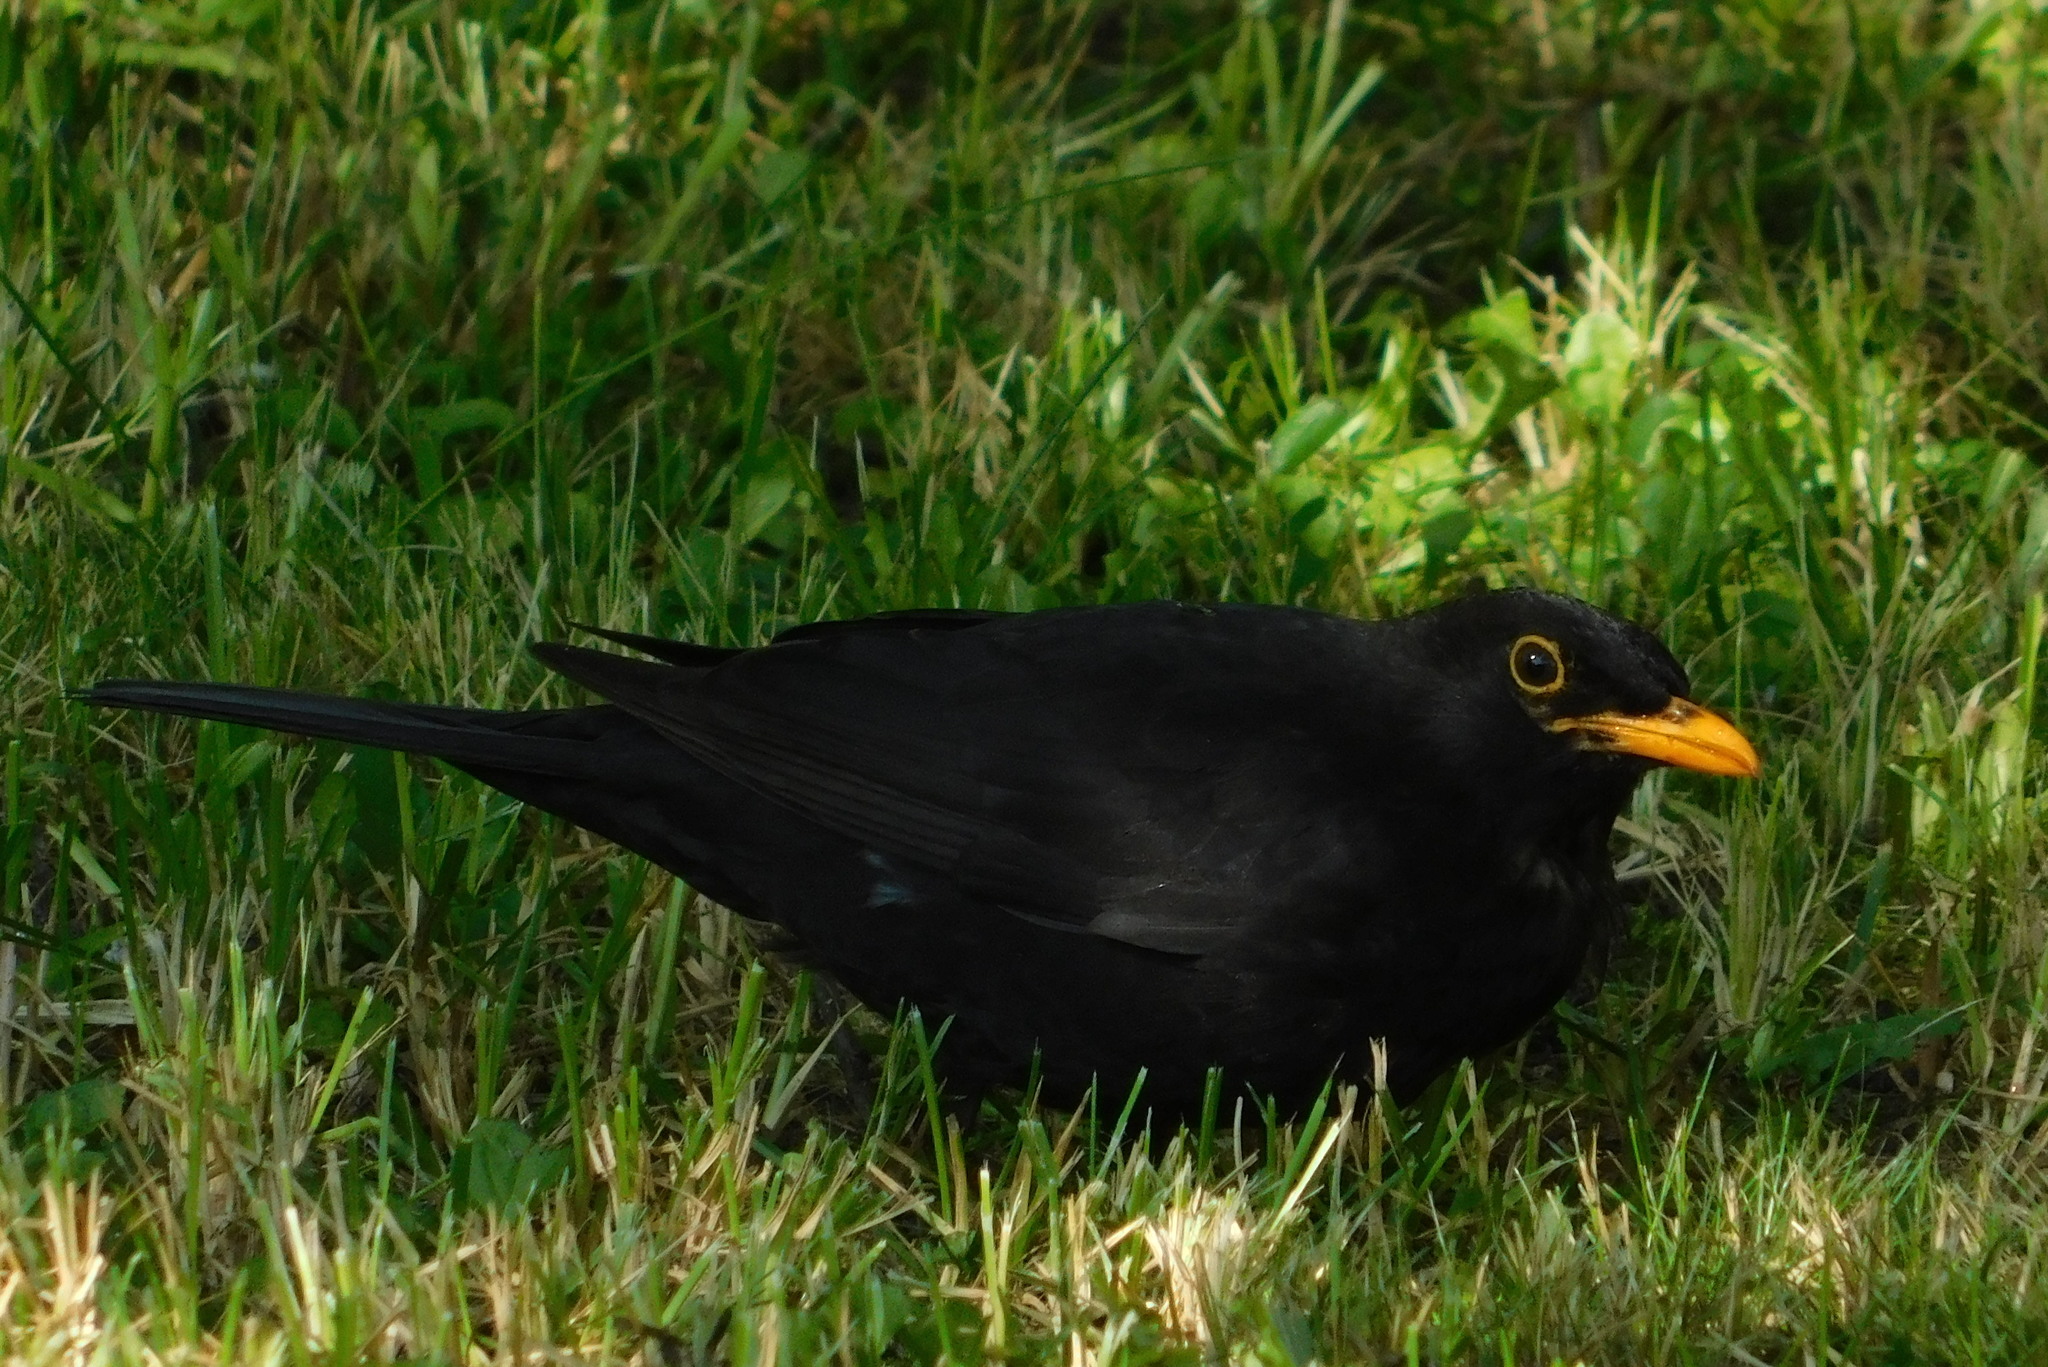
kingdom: Animalia
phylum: Chordata
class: Aves
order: Passeriformes
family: Turdidae
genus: Turdus
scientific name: Turdus merula
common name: Common blackbird
